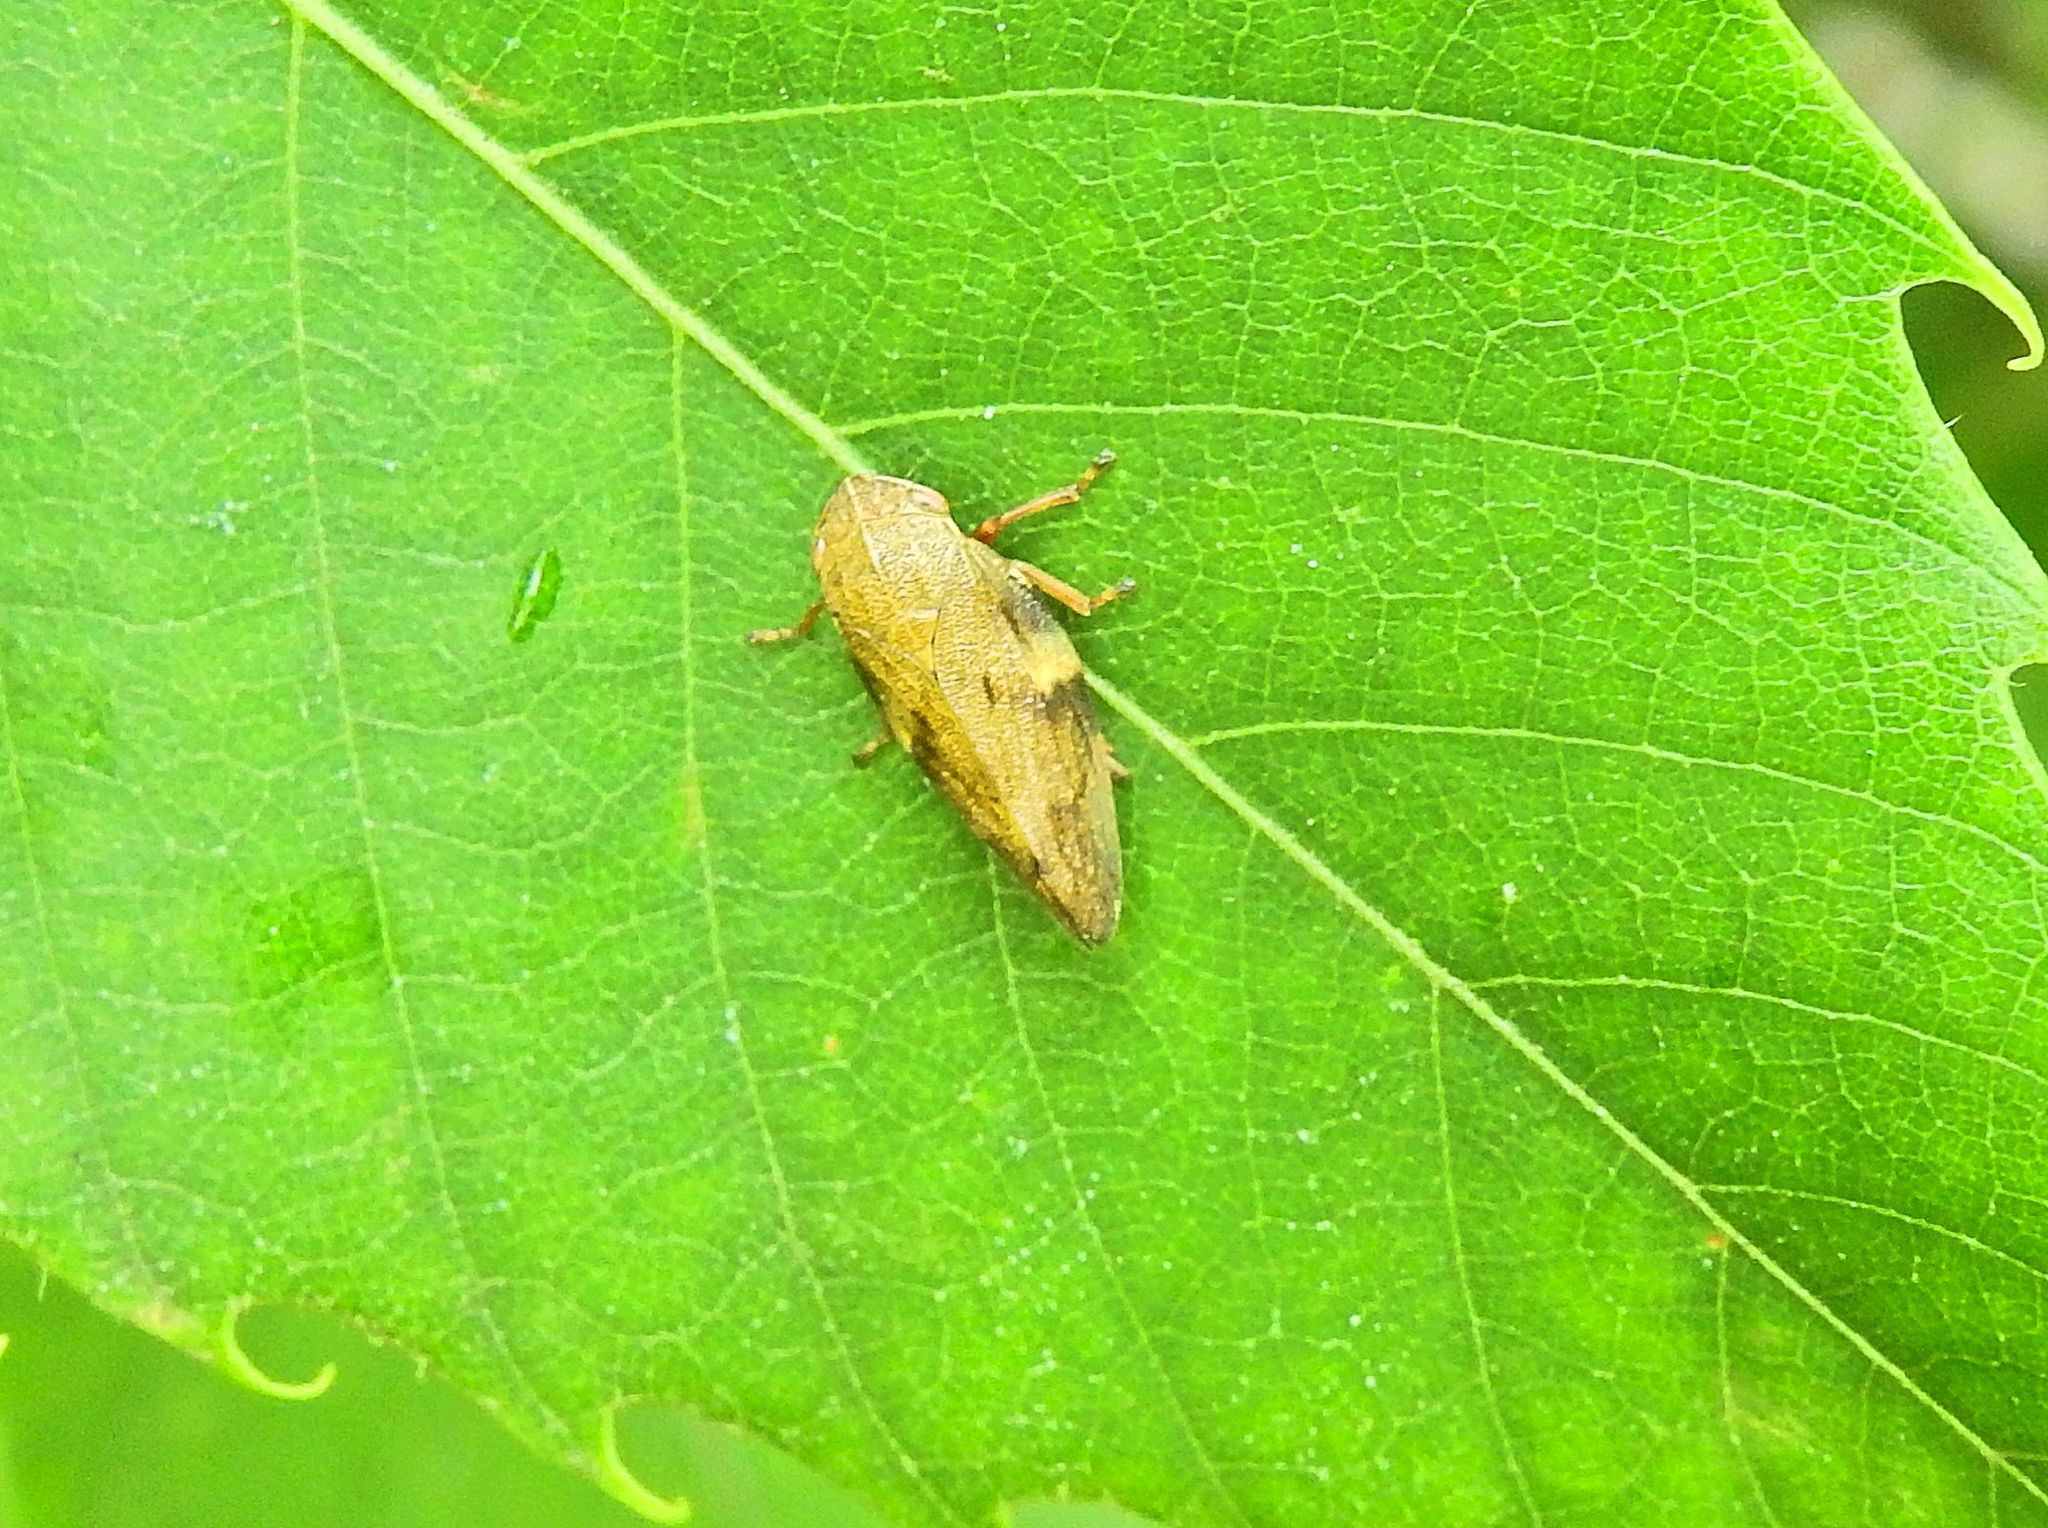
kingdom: Animalia
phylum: Arthropoda
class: Insecta
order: Hemiptera
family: Aphrophoridae
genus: Aphrophora
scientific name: Aphrophora alni
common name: European alder spittlebug
